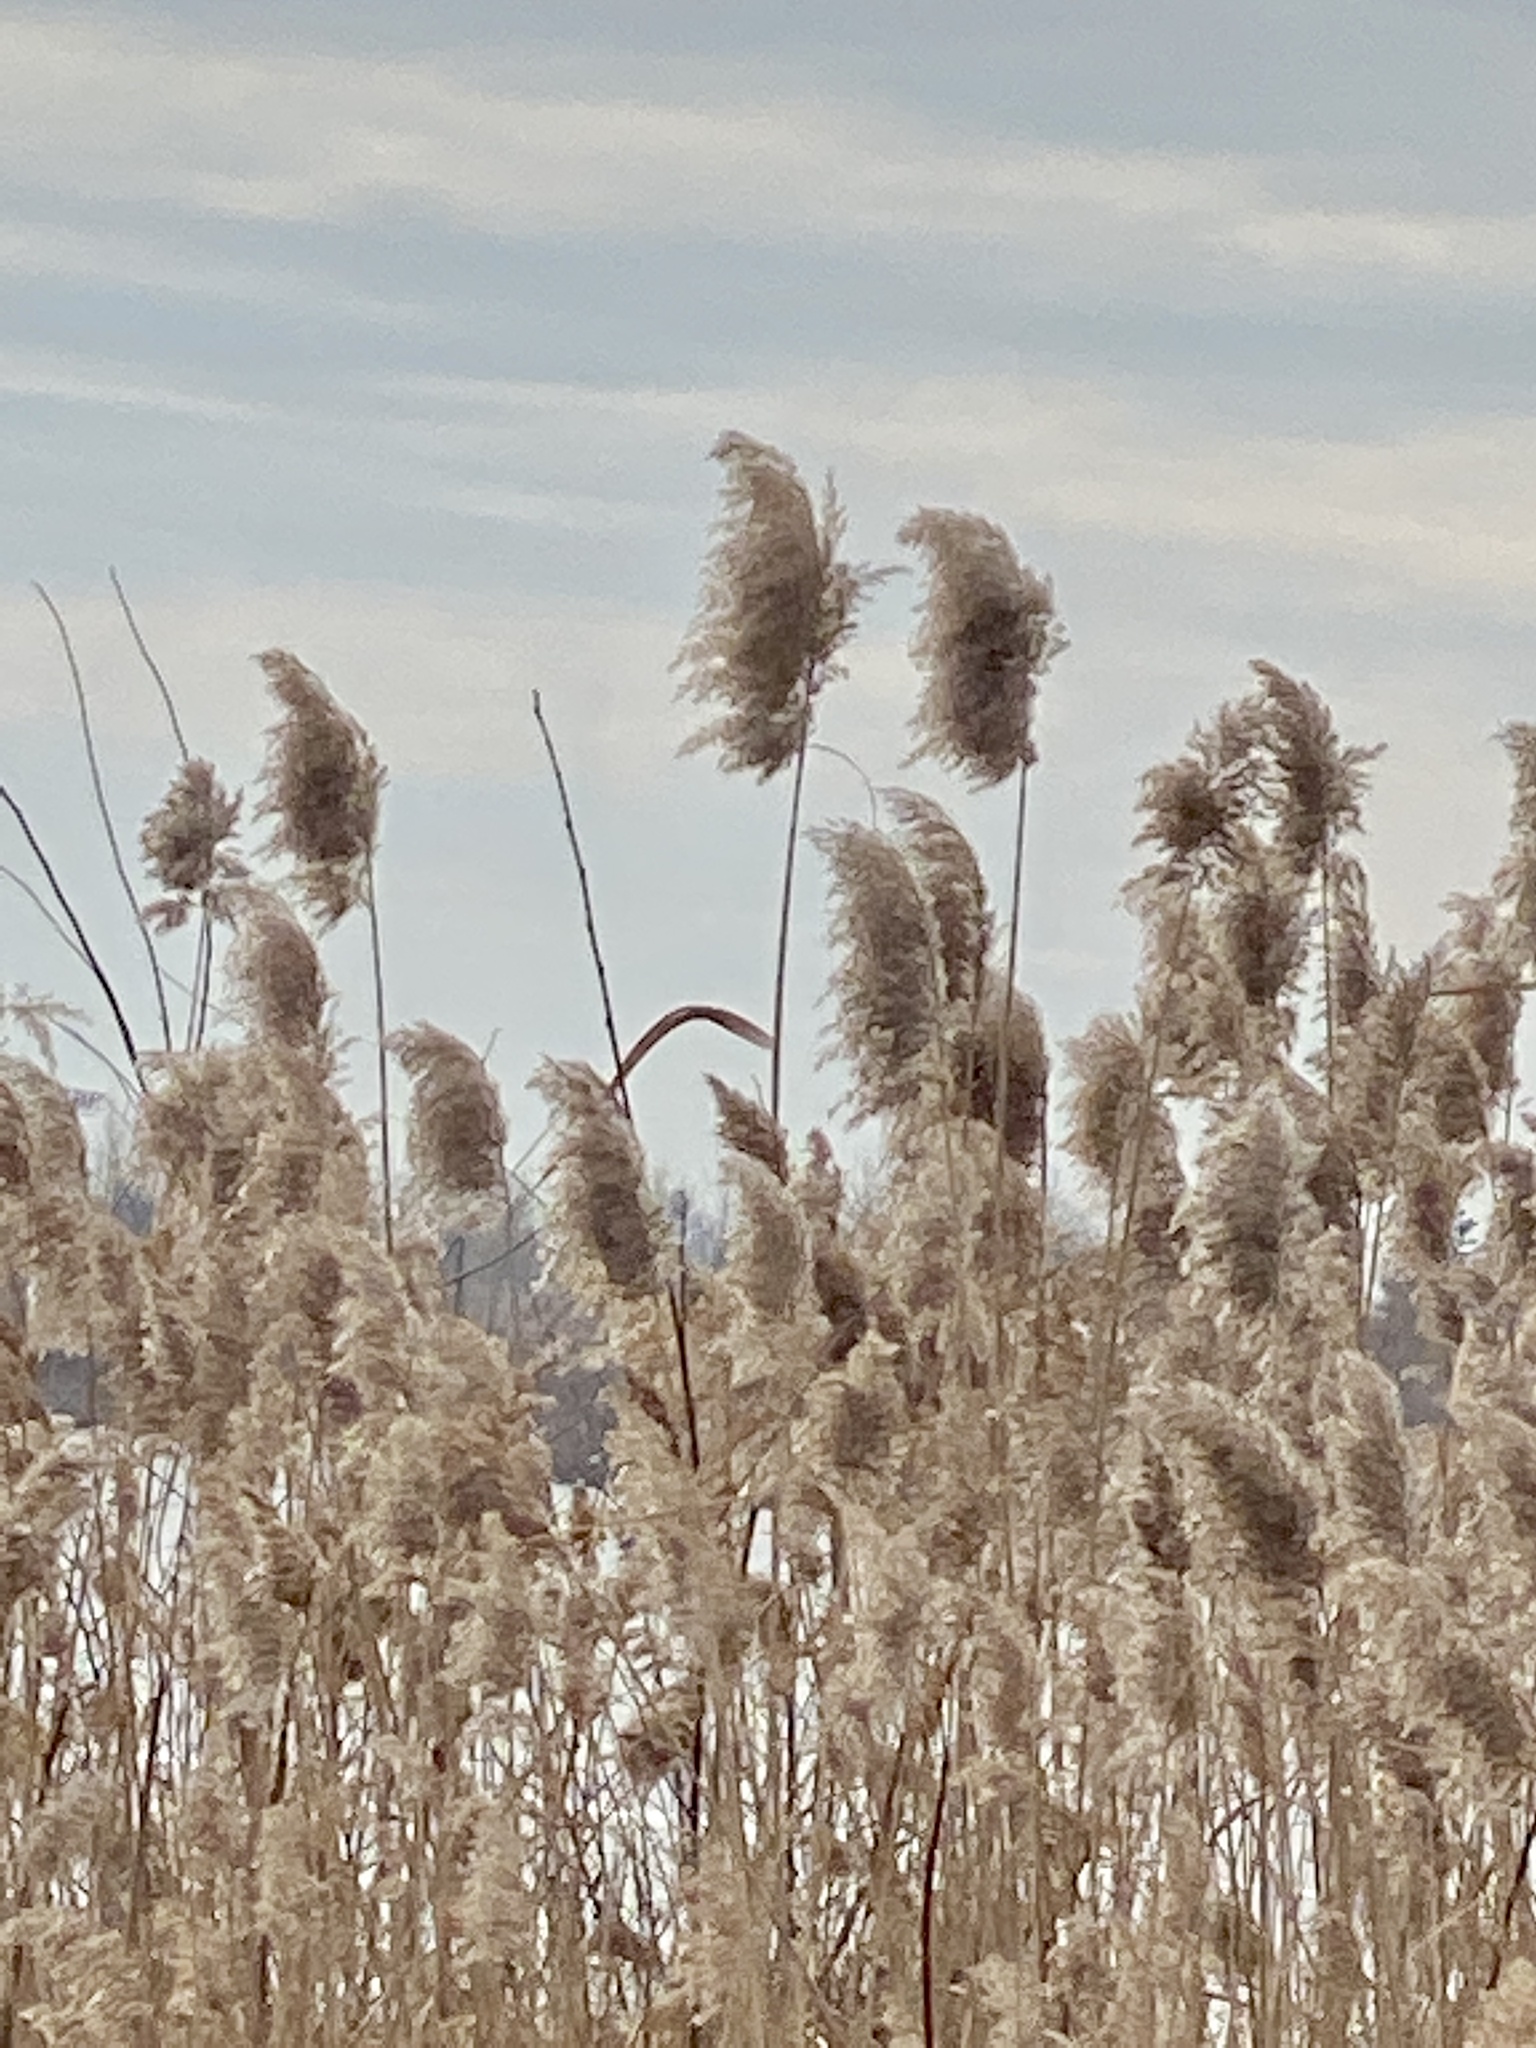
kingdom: Plantae
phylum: Tracheophyta
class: Liliopsida
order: Poales
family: Poaceae
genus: Phragmites
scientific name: Phragmites australis
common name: Common reed
